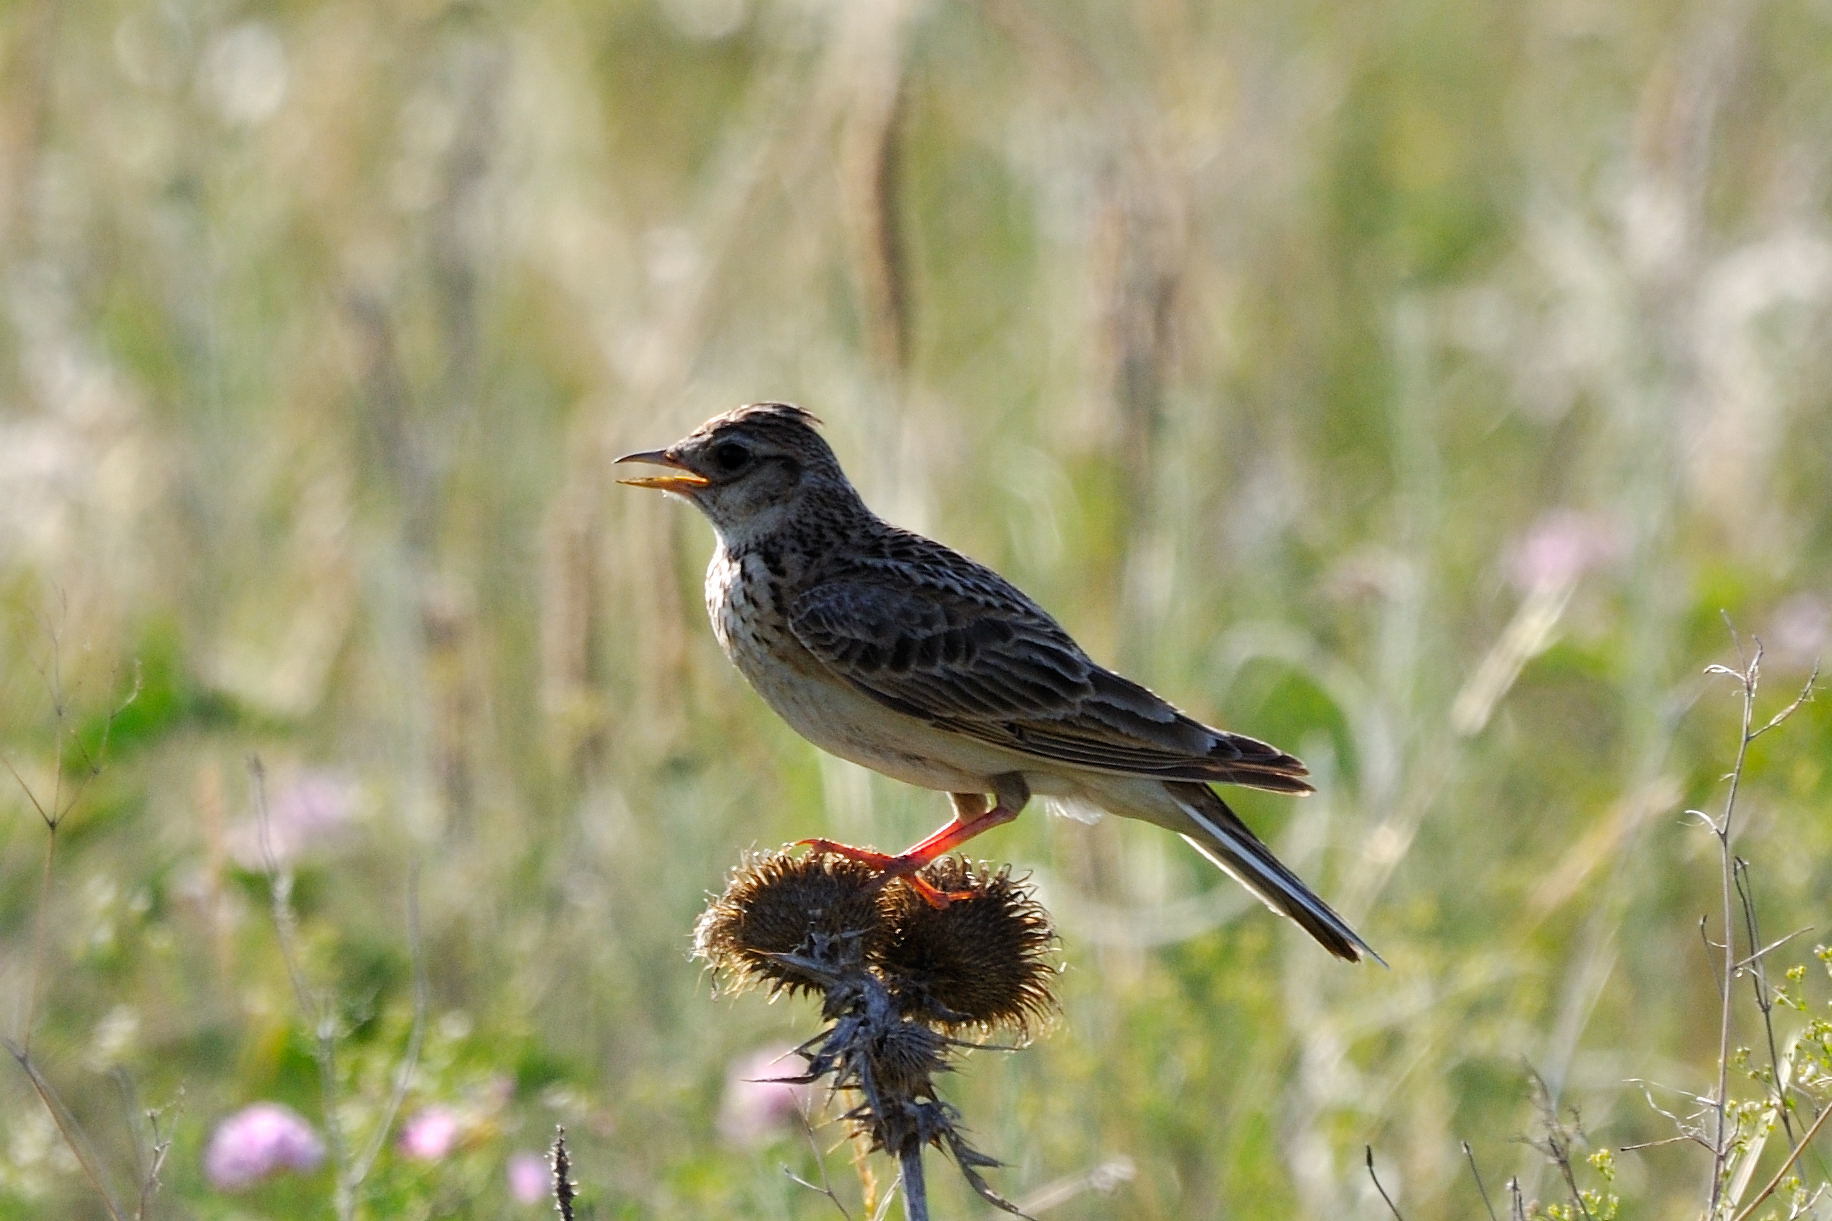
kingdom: Animalia
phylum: Chordata
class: Aves
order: Passeriformes
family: Alaudidae
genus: Alauda
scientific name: Alauda arvensis
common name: Eurasian skylark
